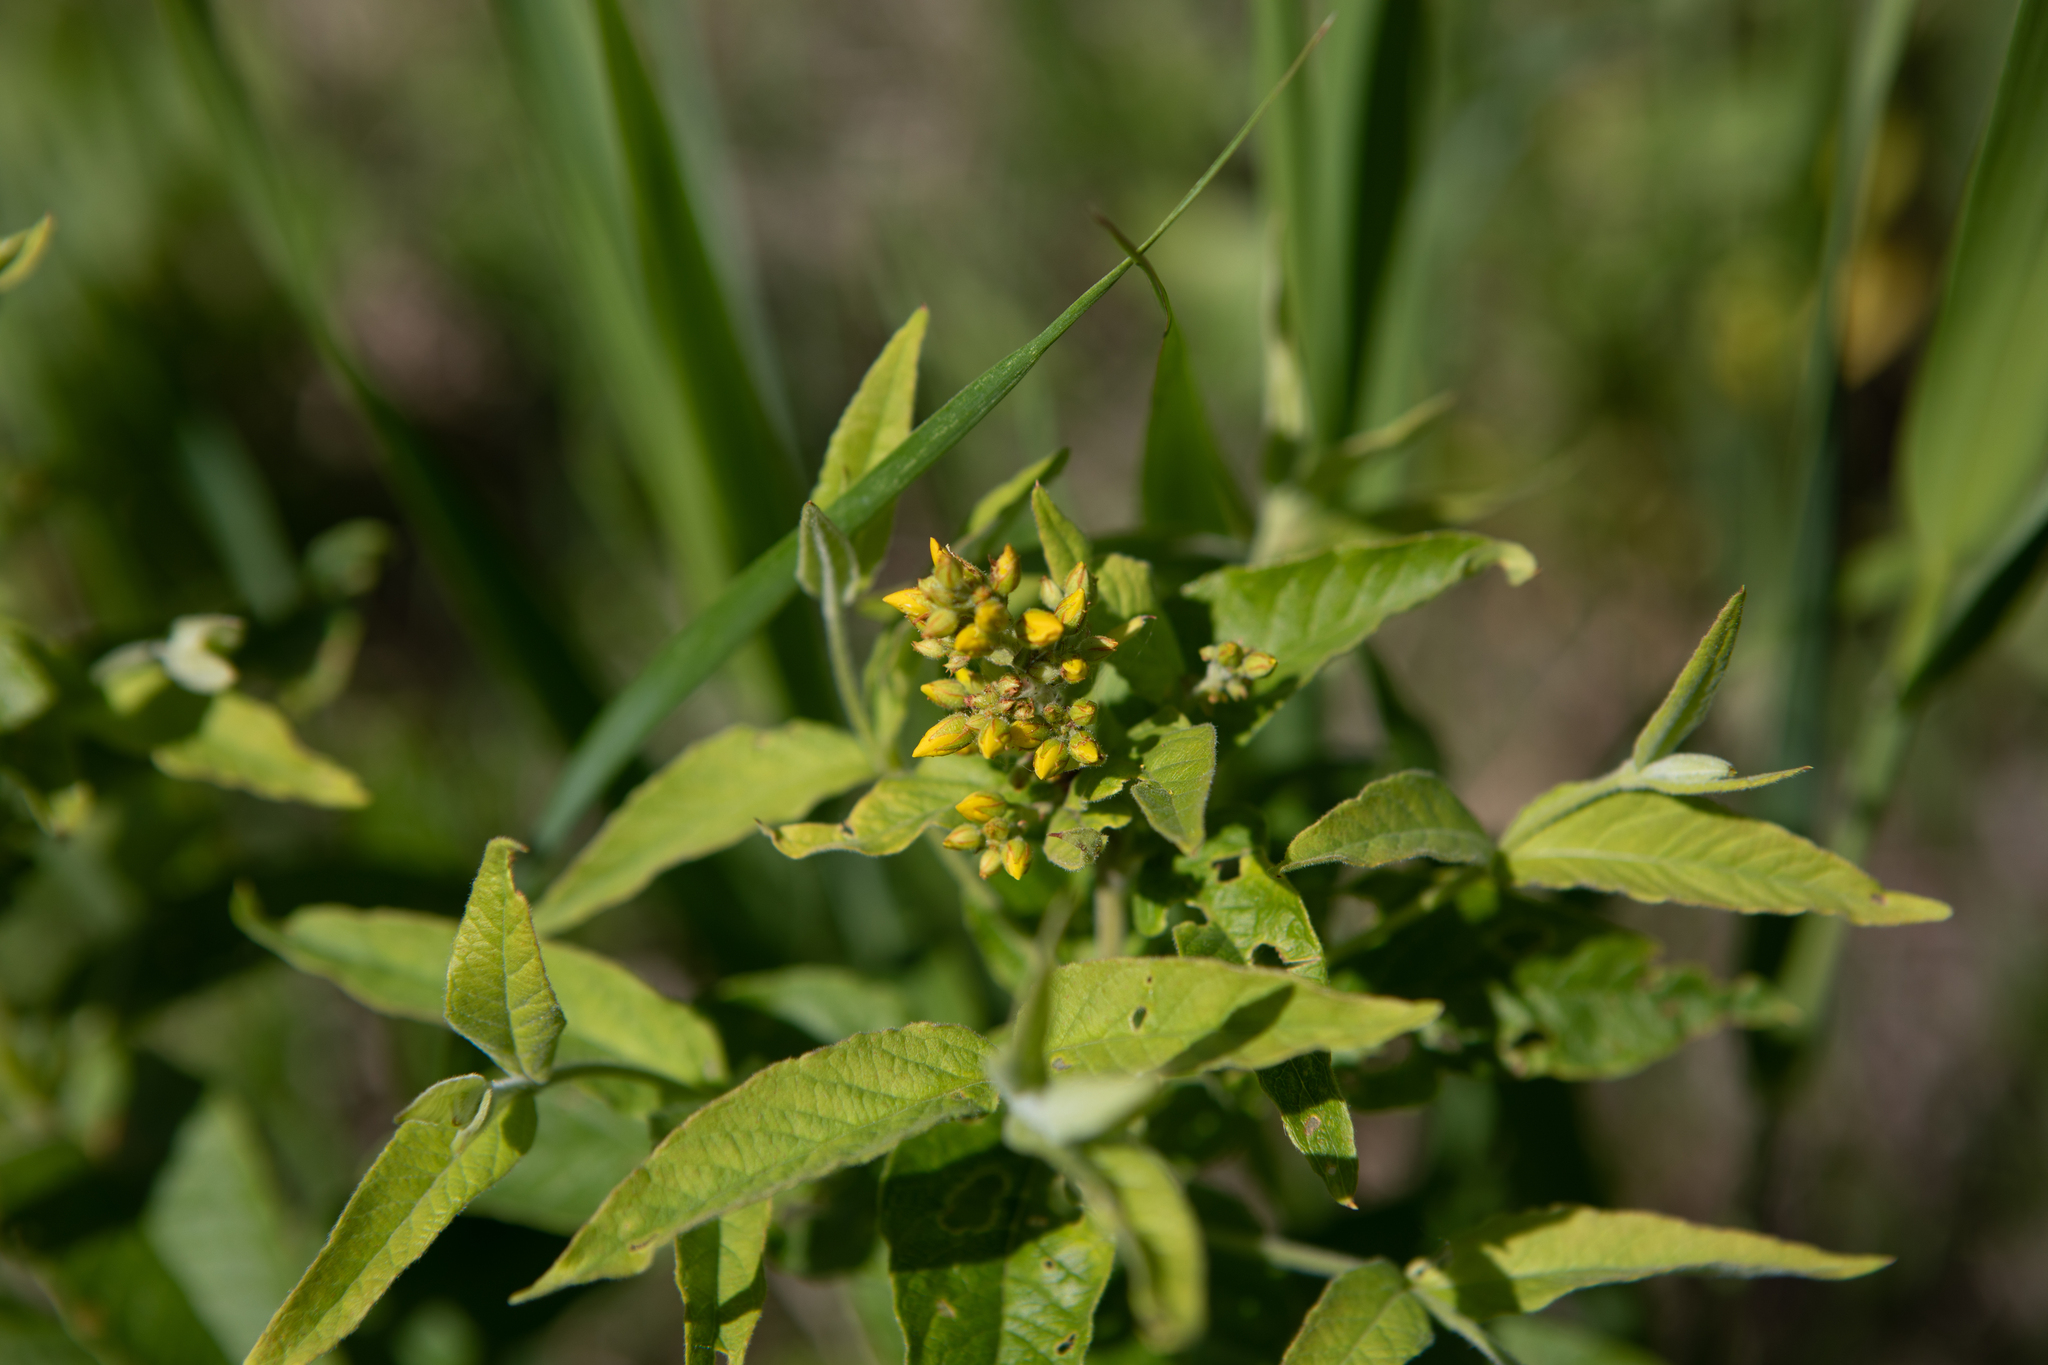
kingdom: Plantae
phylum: Tracheophyta
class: Magnoliopsida
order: Ericales
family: Primulaceae
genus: Lysimachia
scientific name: Lysimachia vulgaris
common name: Yellow loosestrife
